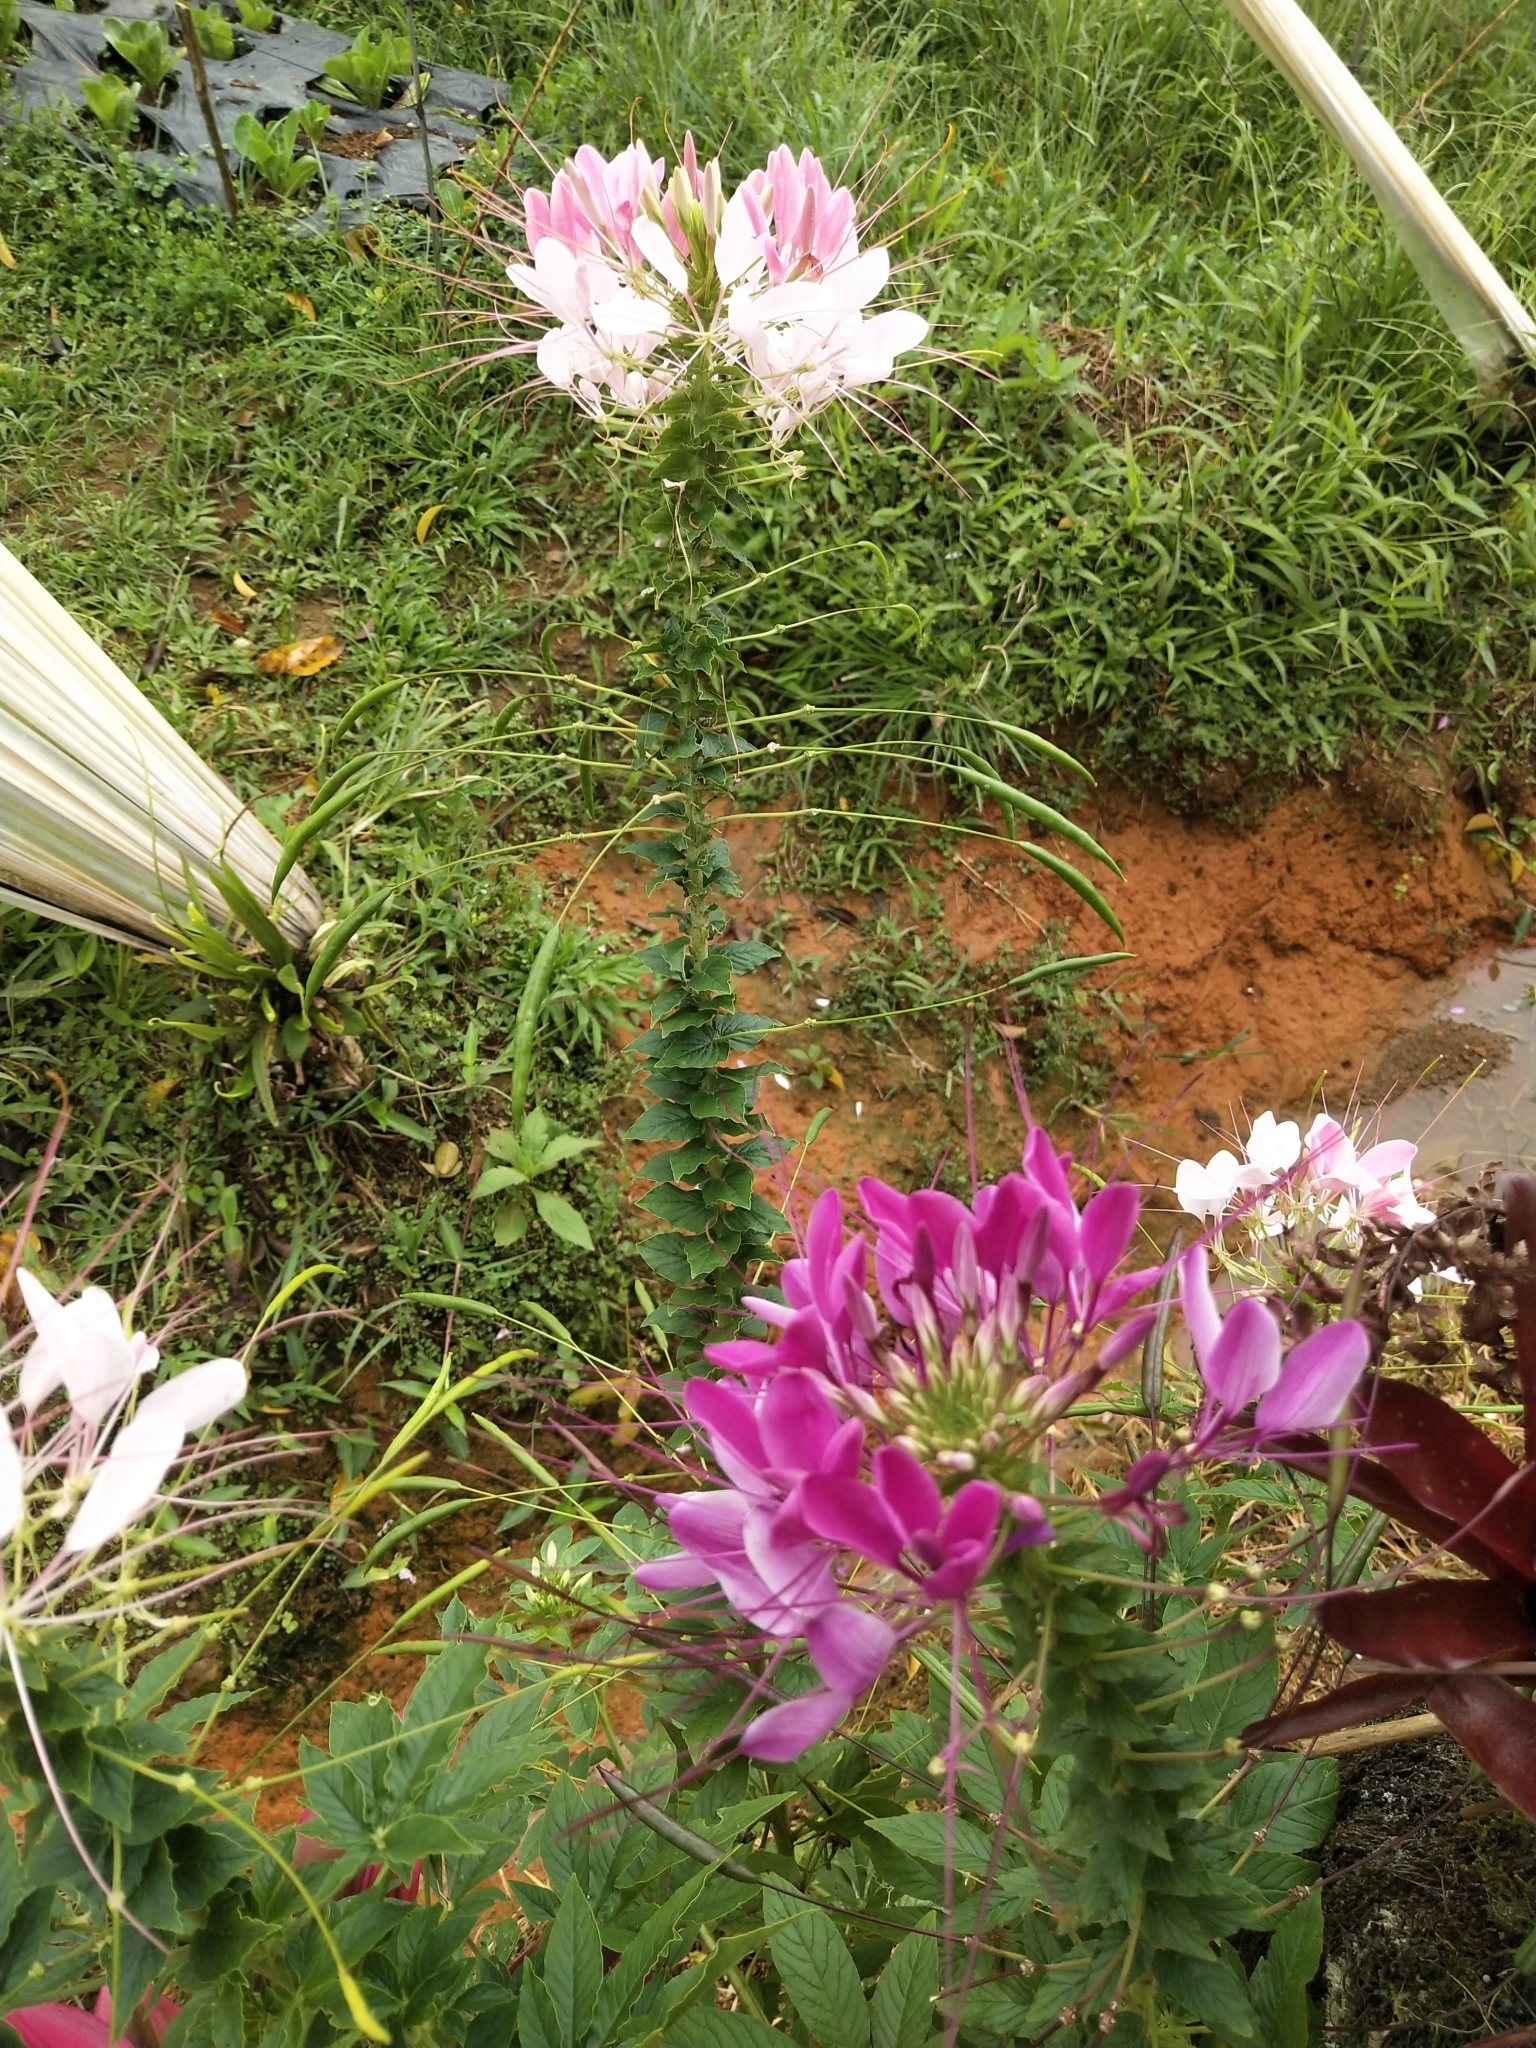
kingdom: Plantae
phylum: Tracheophyta
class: Magnoliopsida
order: Brassicales
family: Cleomaceae
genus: Tarenaya
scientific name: Tarenaya houtteana
